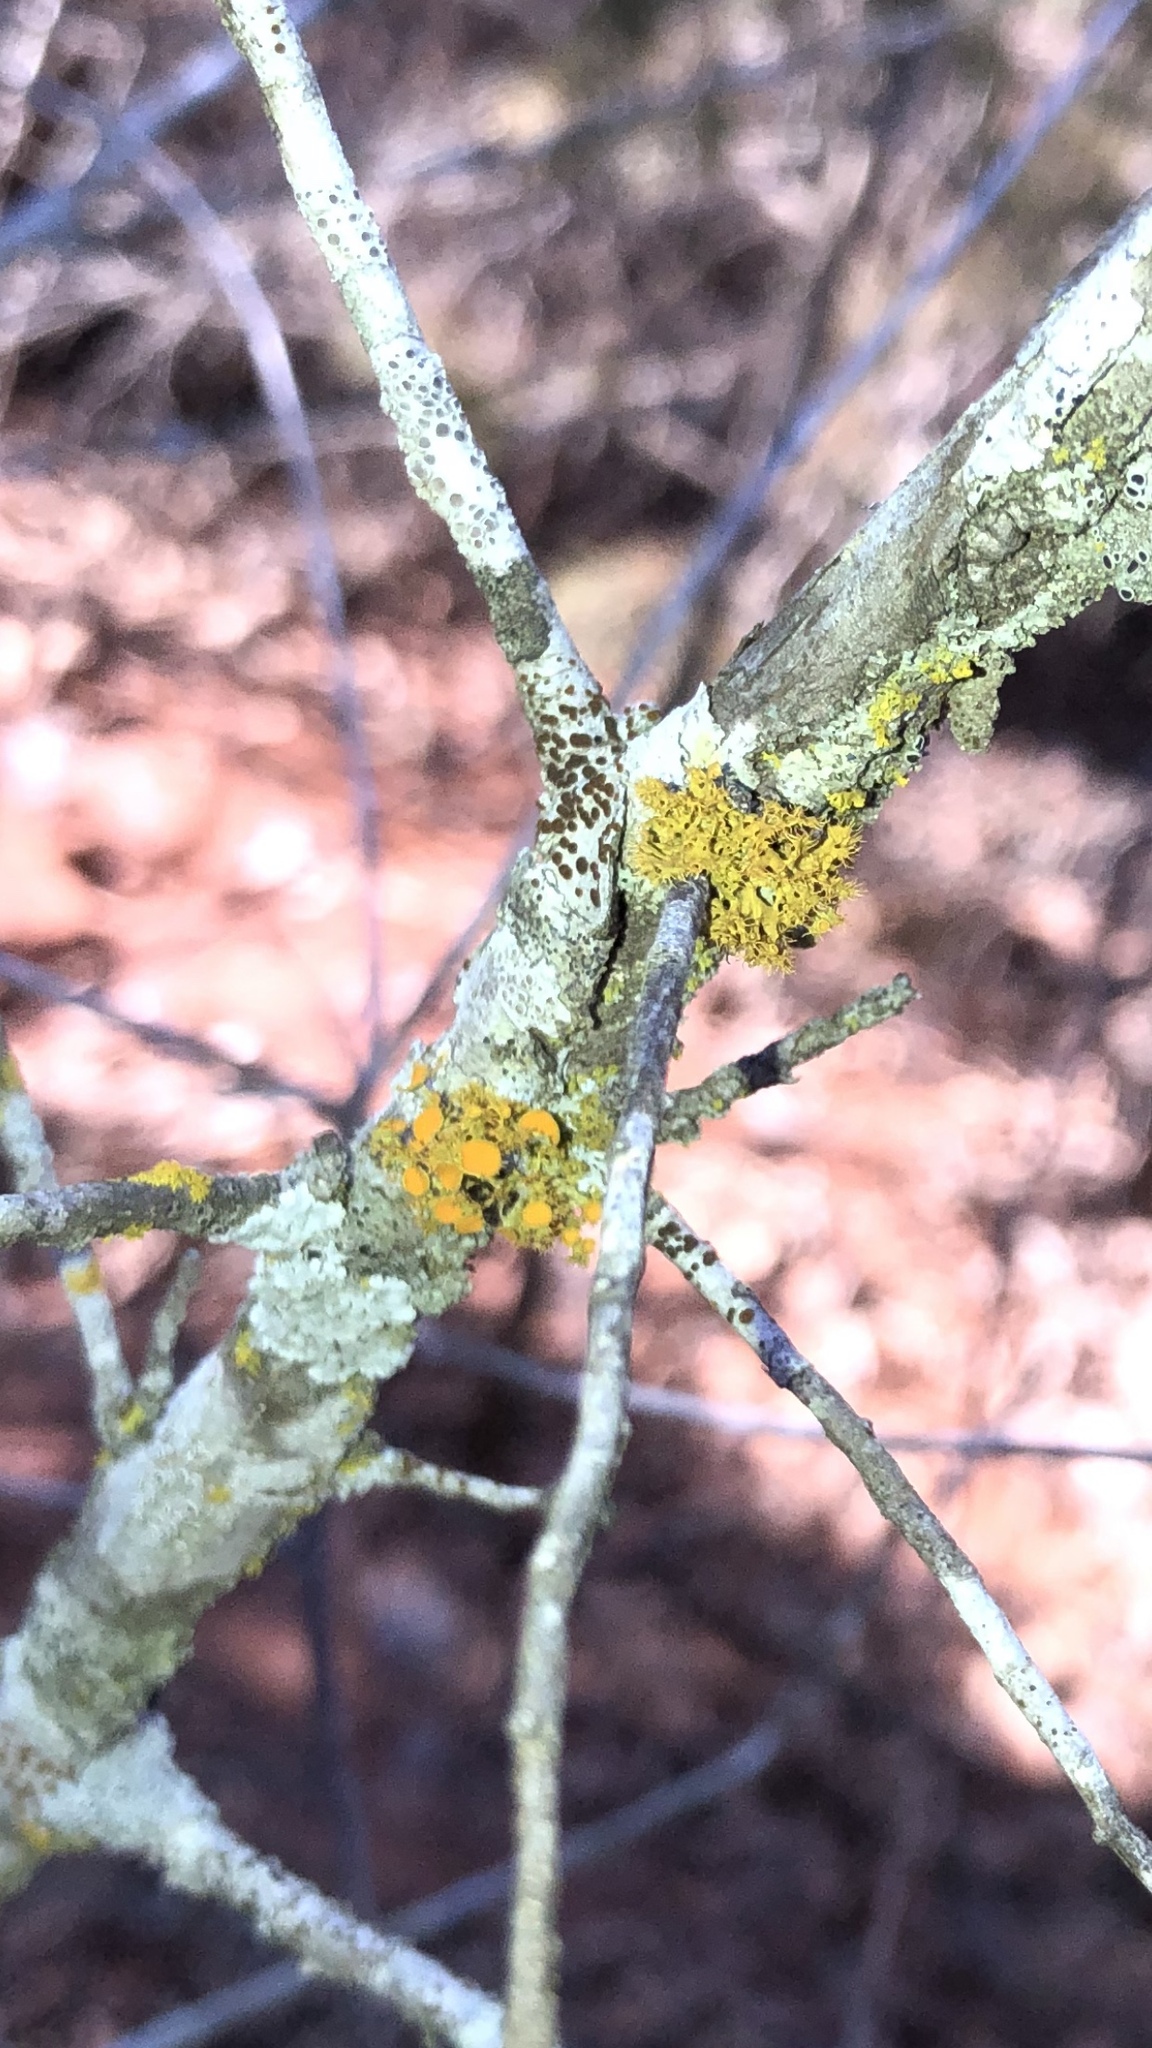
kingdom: Fungi
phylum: Ascomycota
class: Lecanoromycetes
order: Teloschistales
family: Teloschistaceae
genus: Niorma
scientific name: Niorma chrysophthalma
